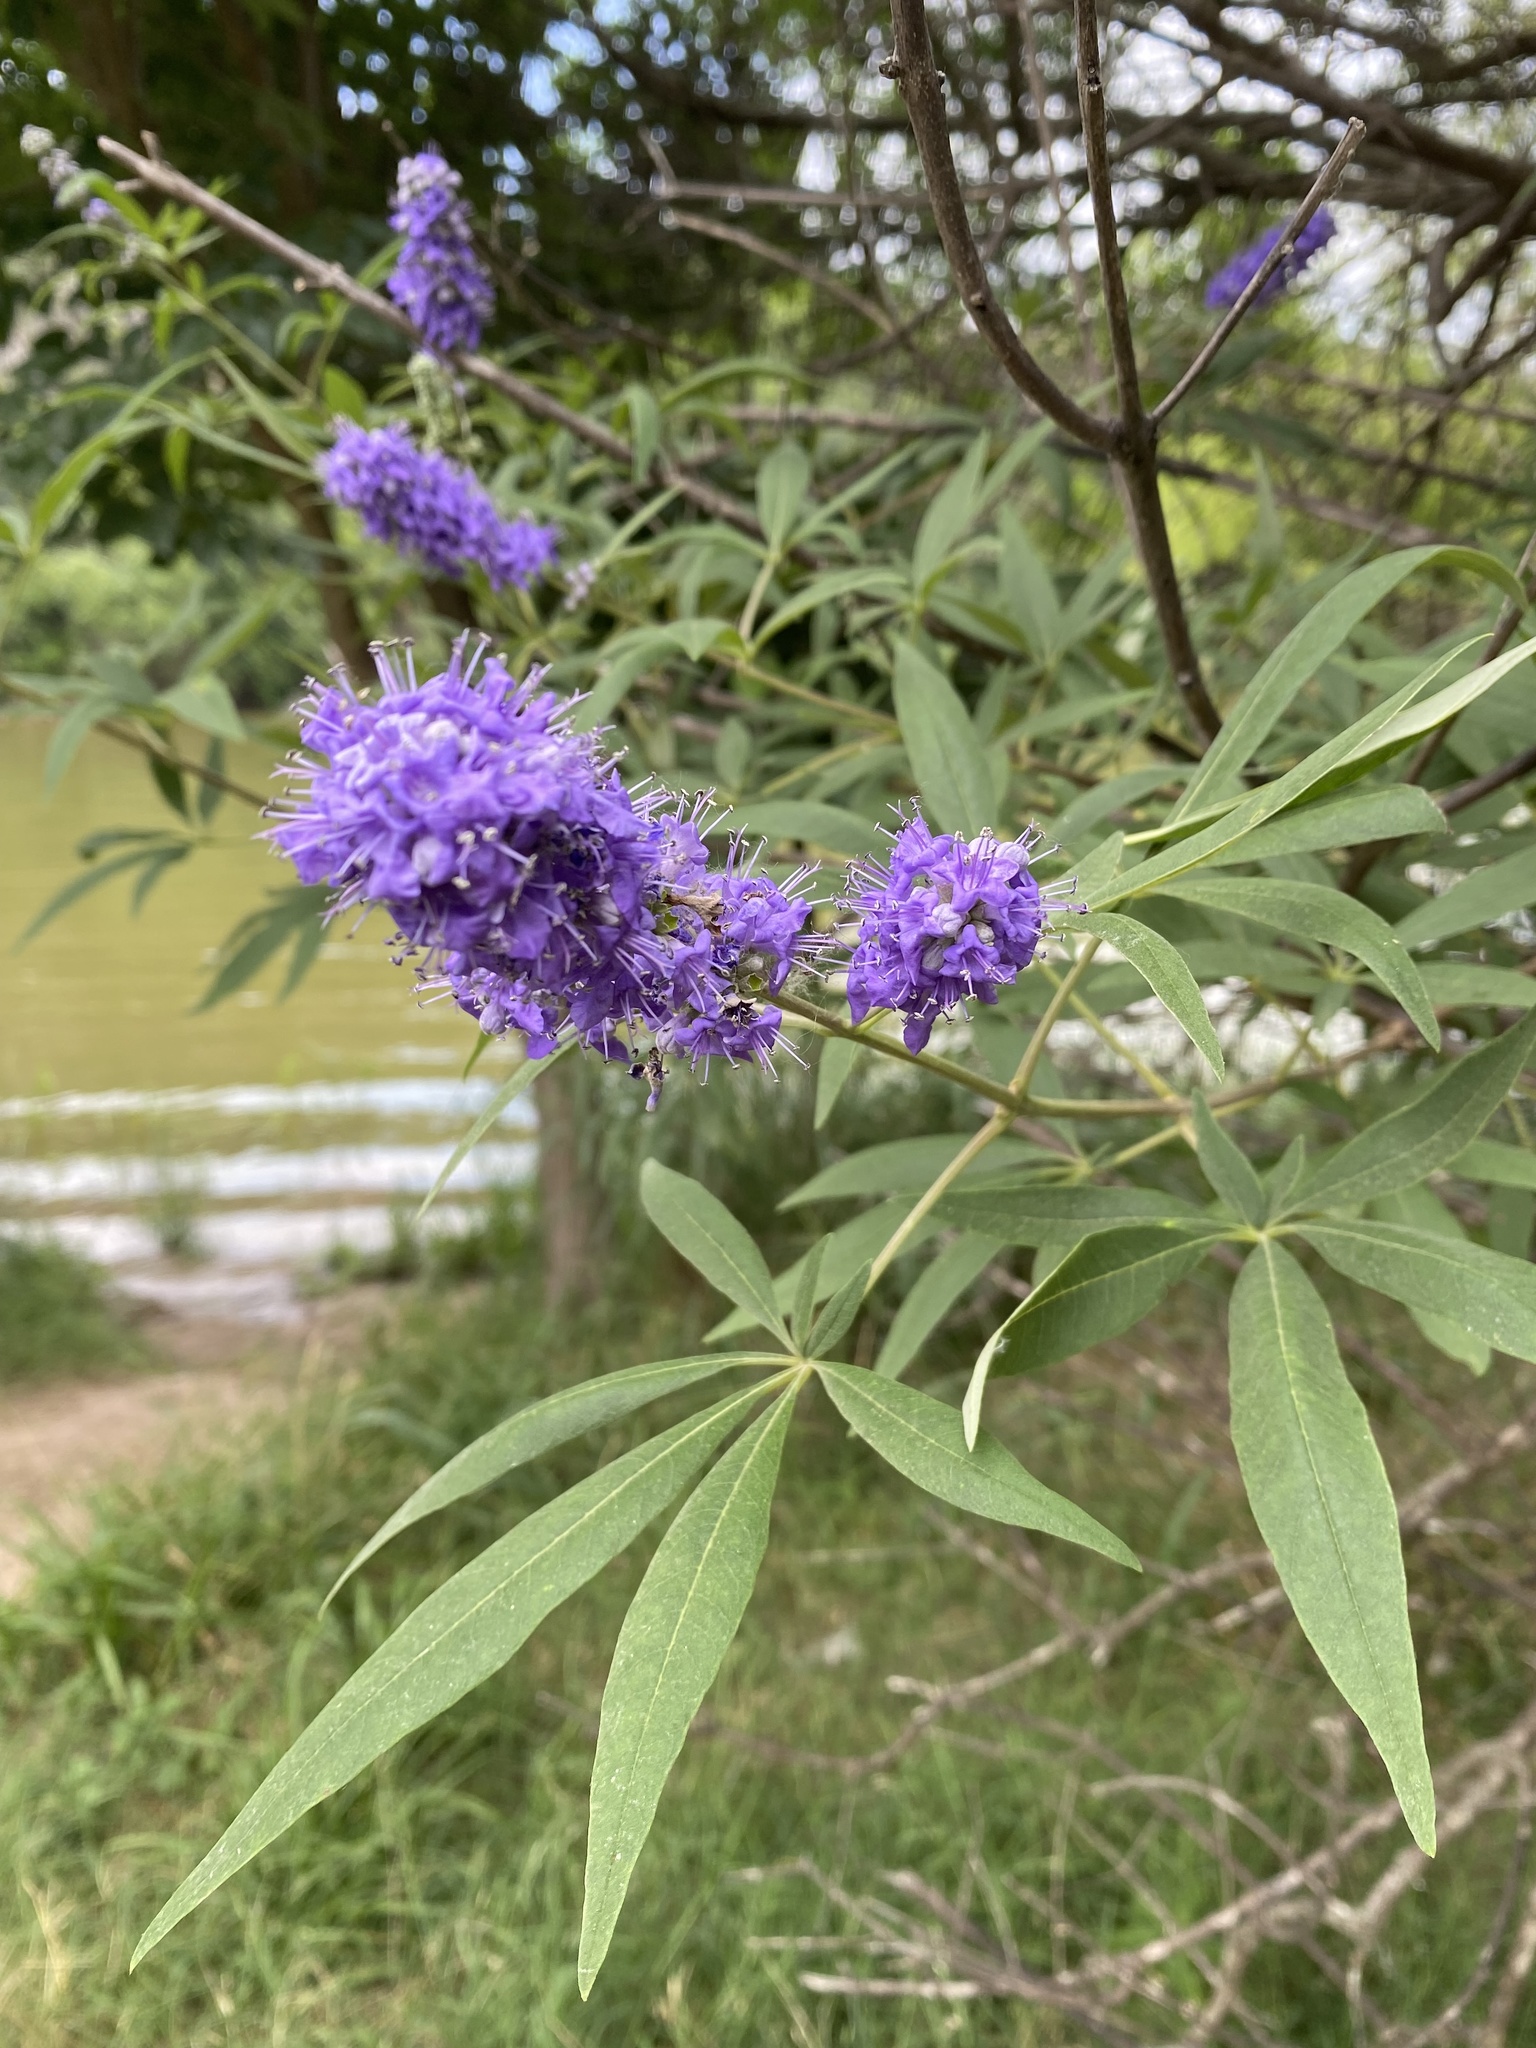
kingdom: Plantae
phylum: Tracheophyta
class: Magnoliopsida
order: Lamiales
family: Lamiaceae
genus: Vitex
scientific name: Vitex agnus-castus
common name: Chasteberry
